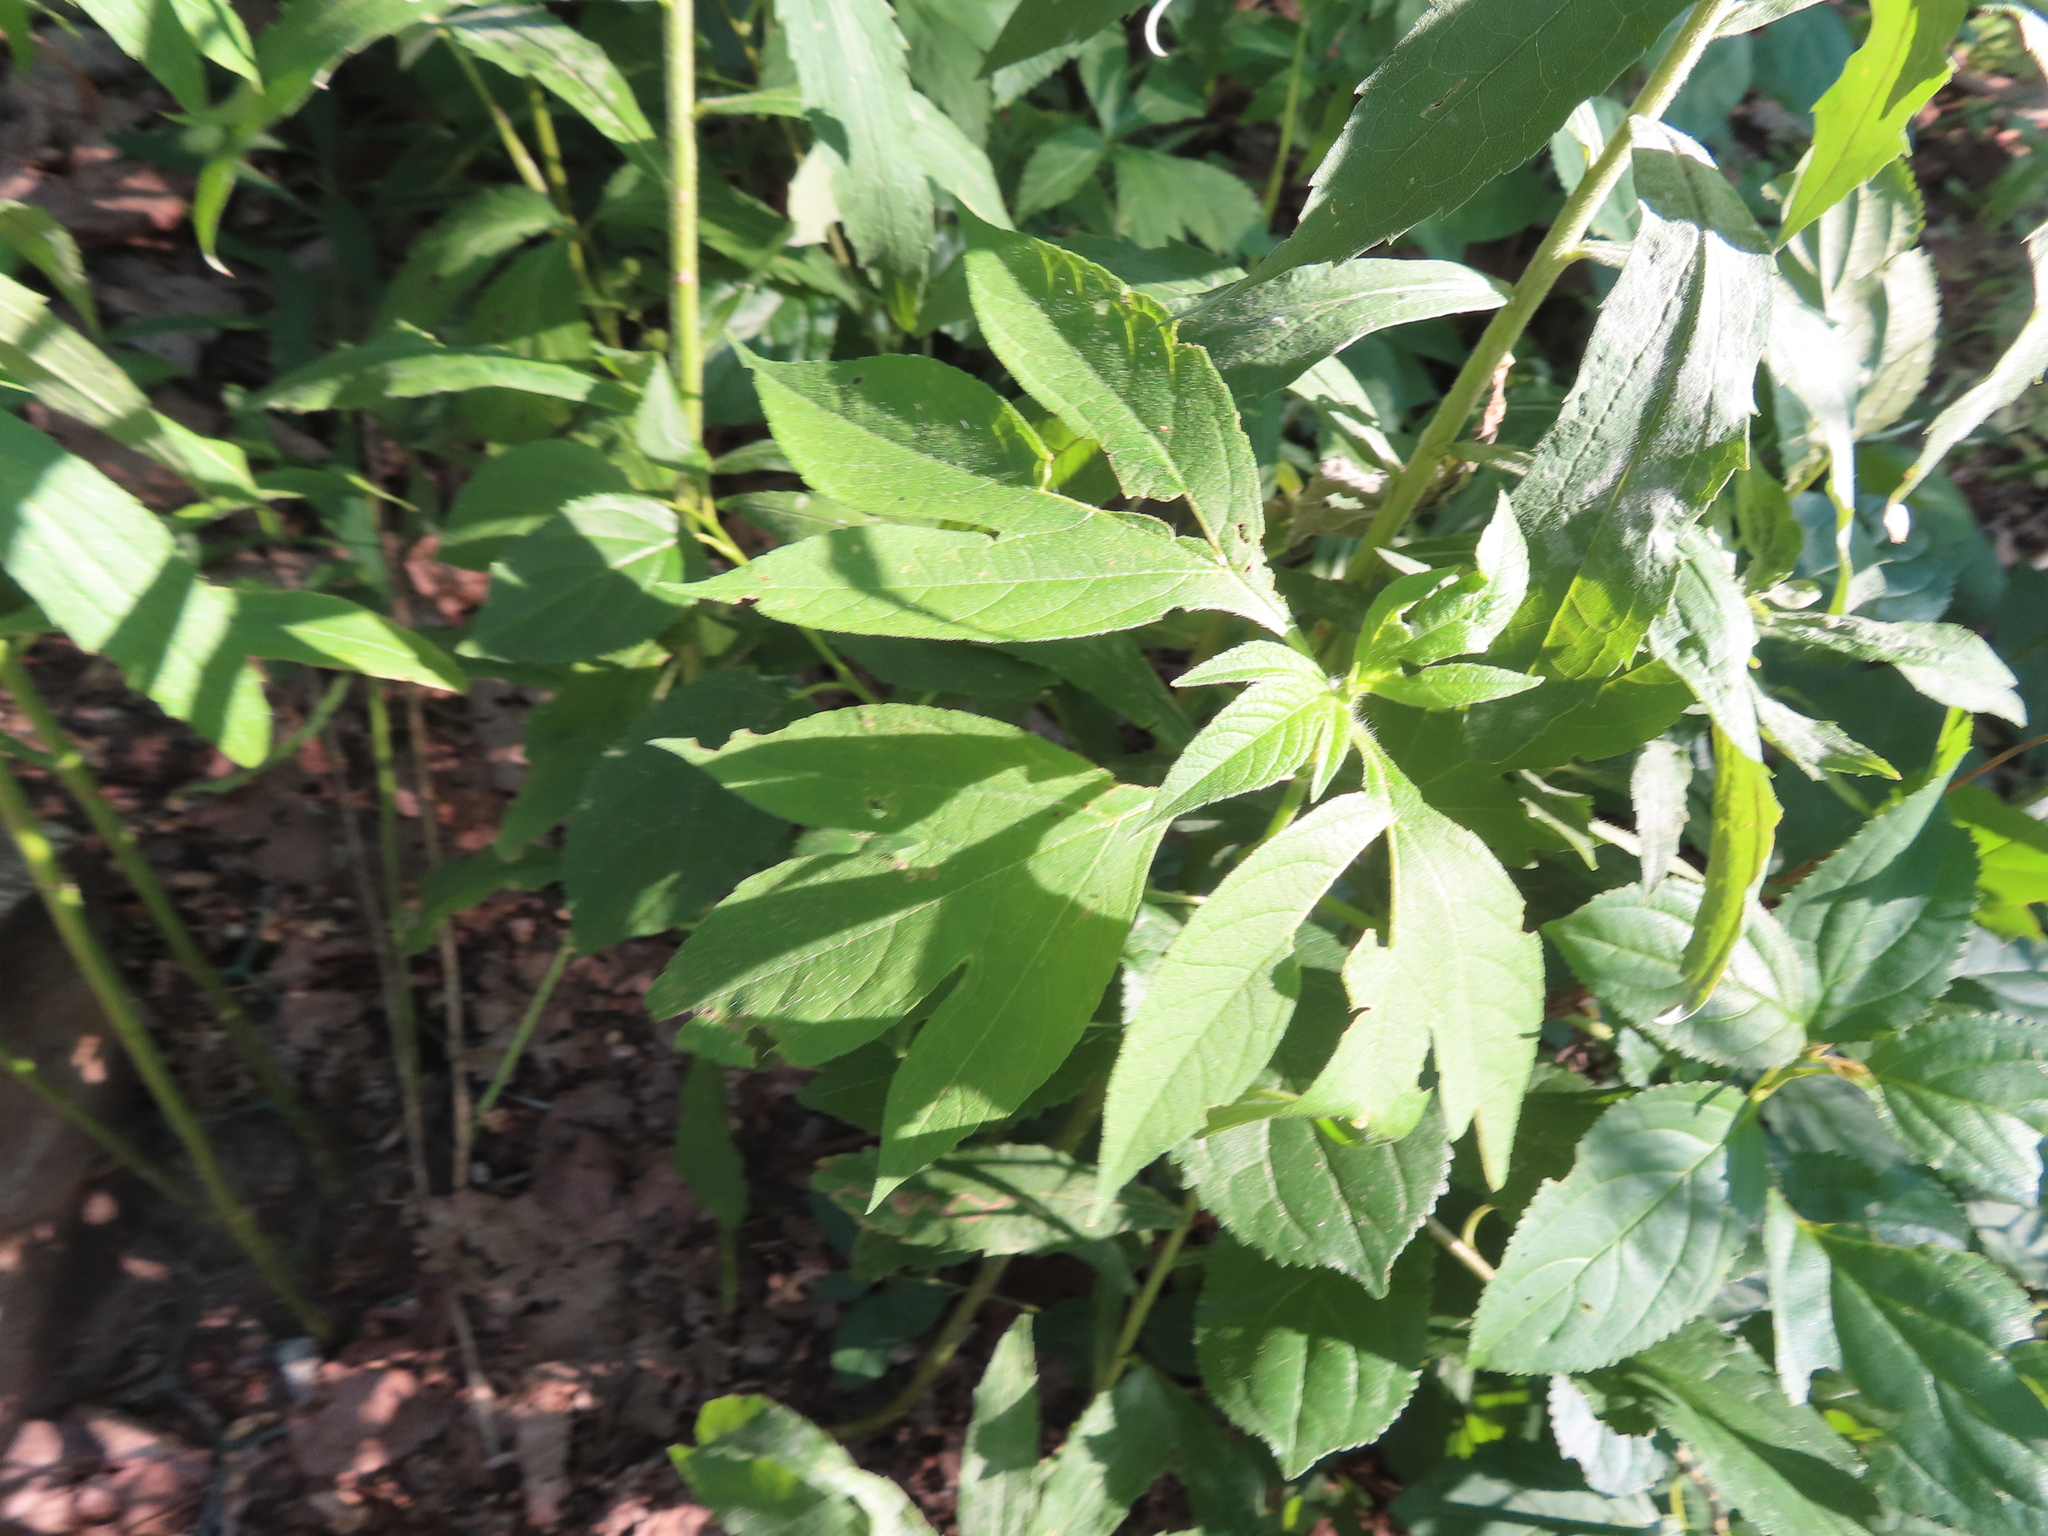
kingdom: Plantae
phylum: Tracheophyta
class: Magnoliopsida
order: Asterales
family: Asteraceae
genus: Ambrosia
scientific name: Ambrosia trifida
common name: Giant ragweed
